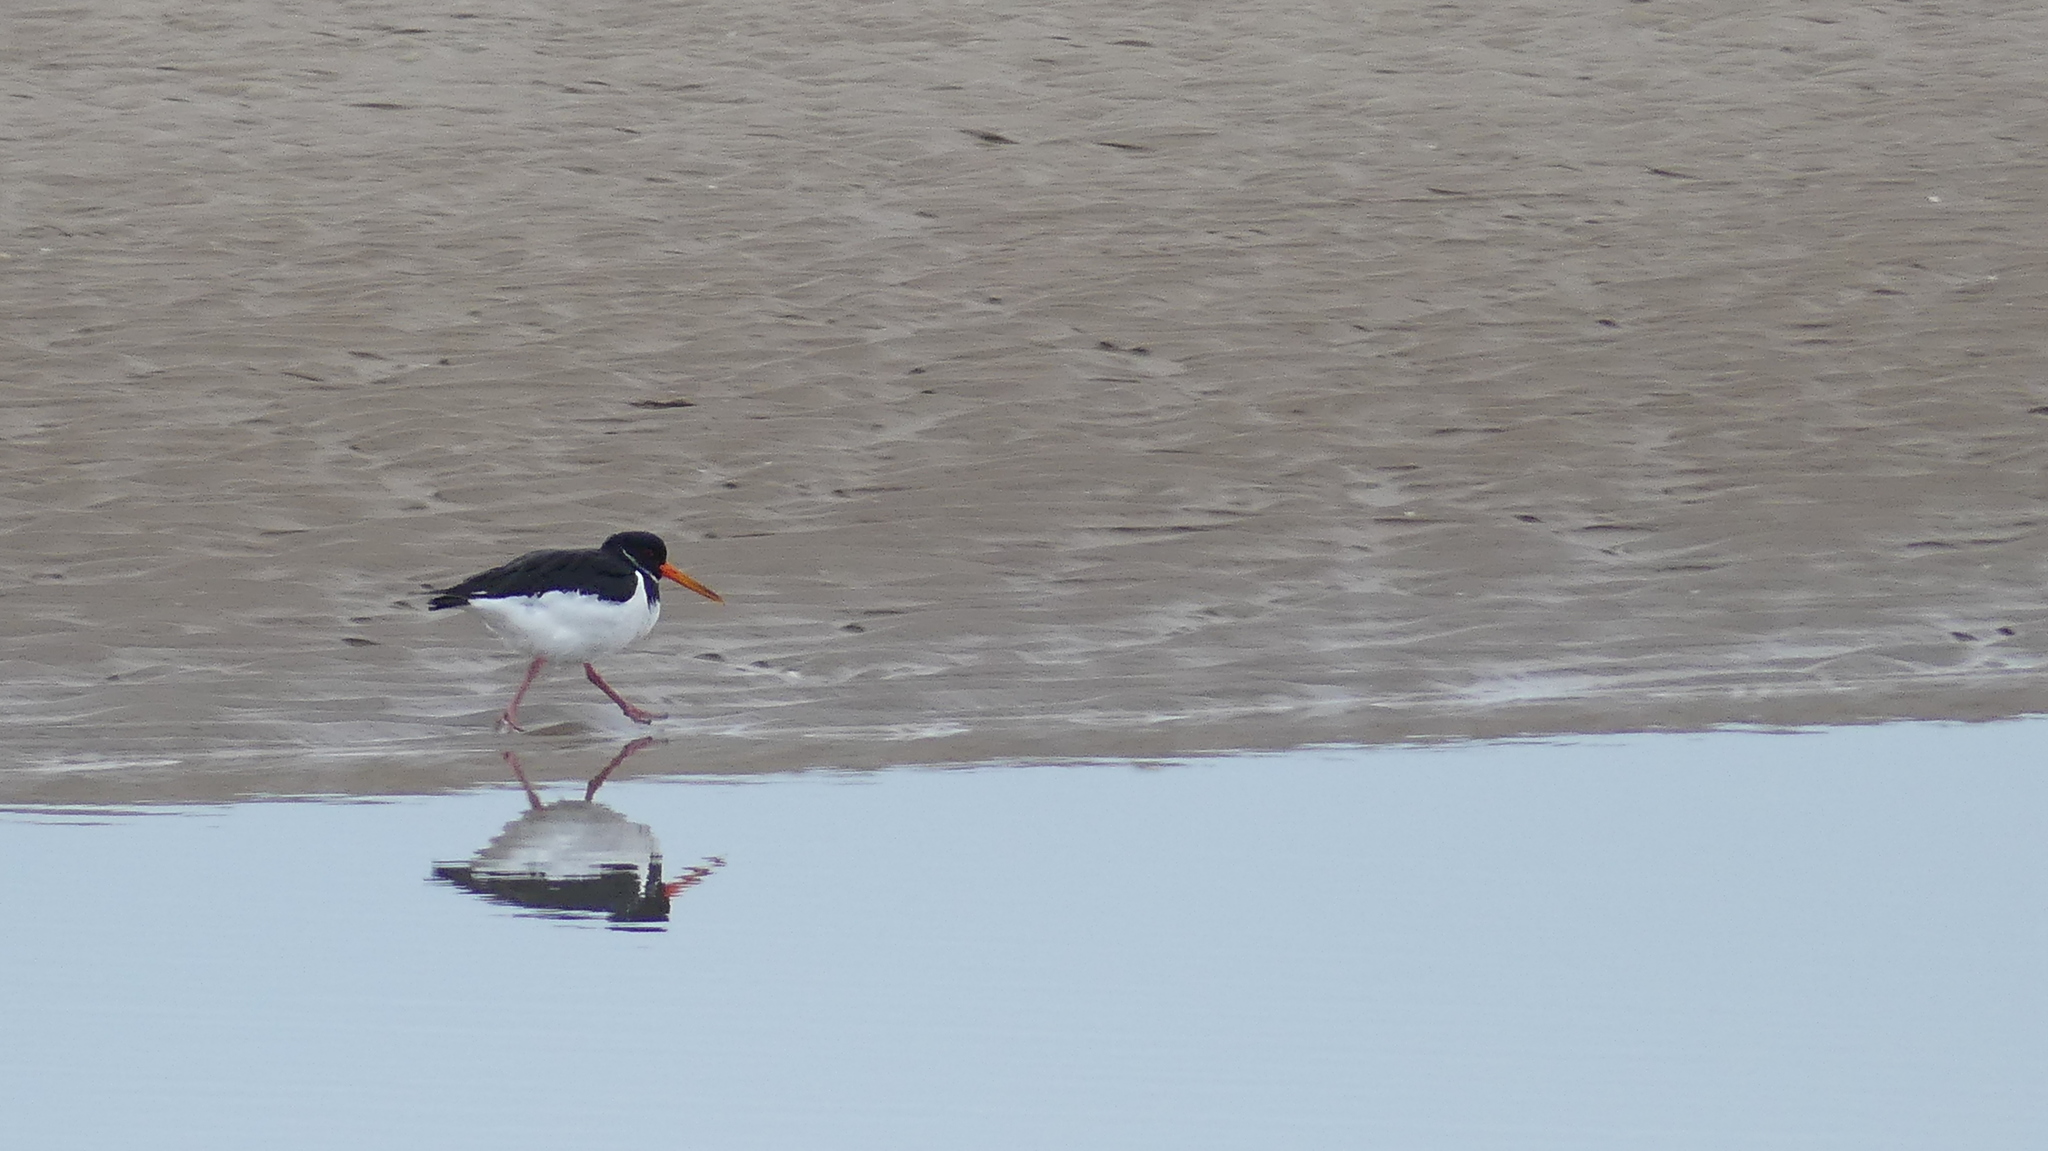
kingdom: Animalia
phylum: Chordata
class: Aves
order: Charadriiformes
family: Haematopodidae
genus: Haematopus
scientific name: Haematopus ostralegus
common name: Eurasian oystercatcher
